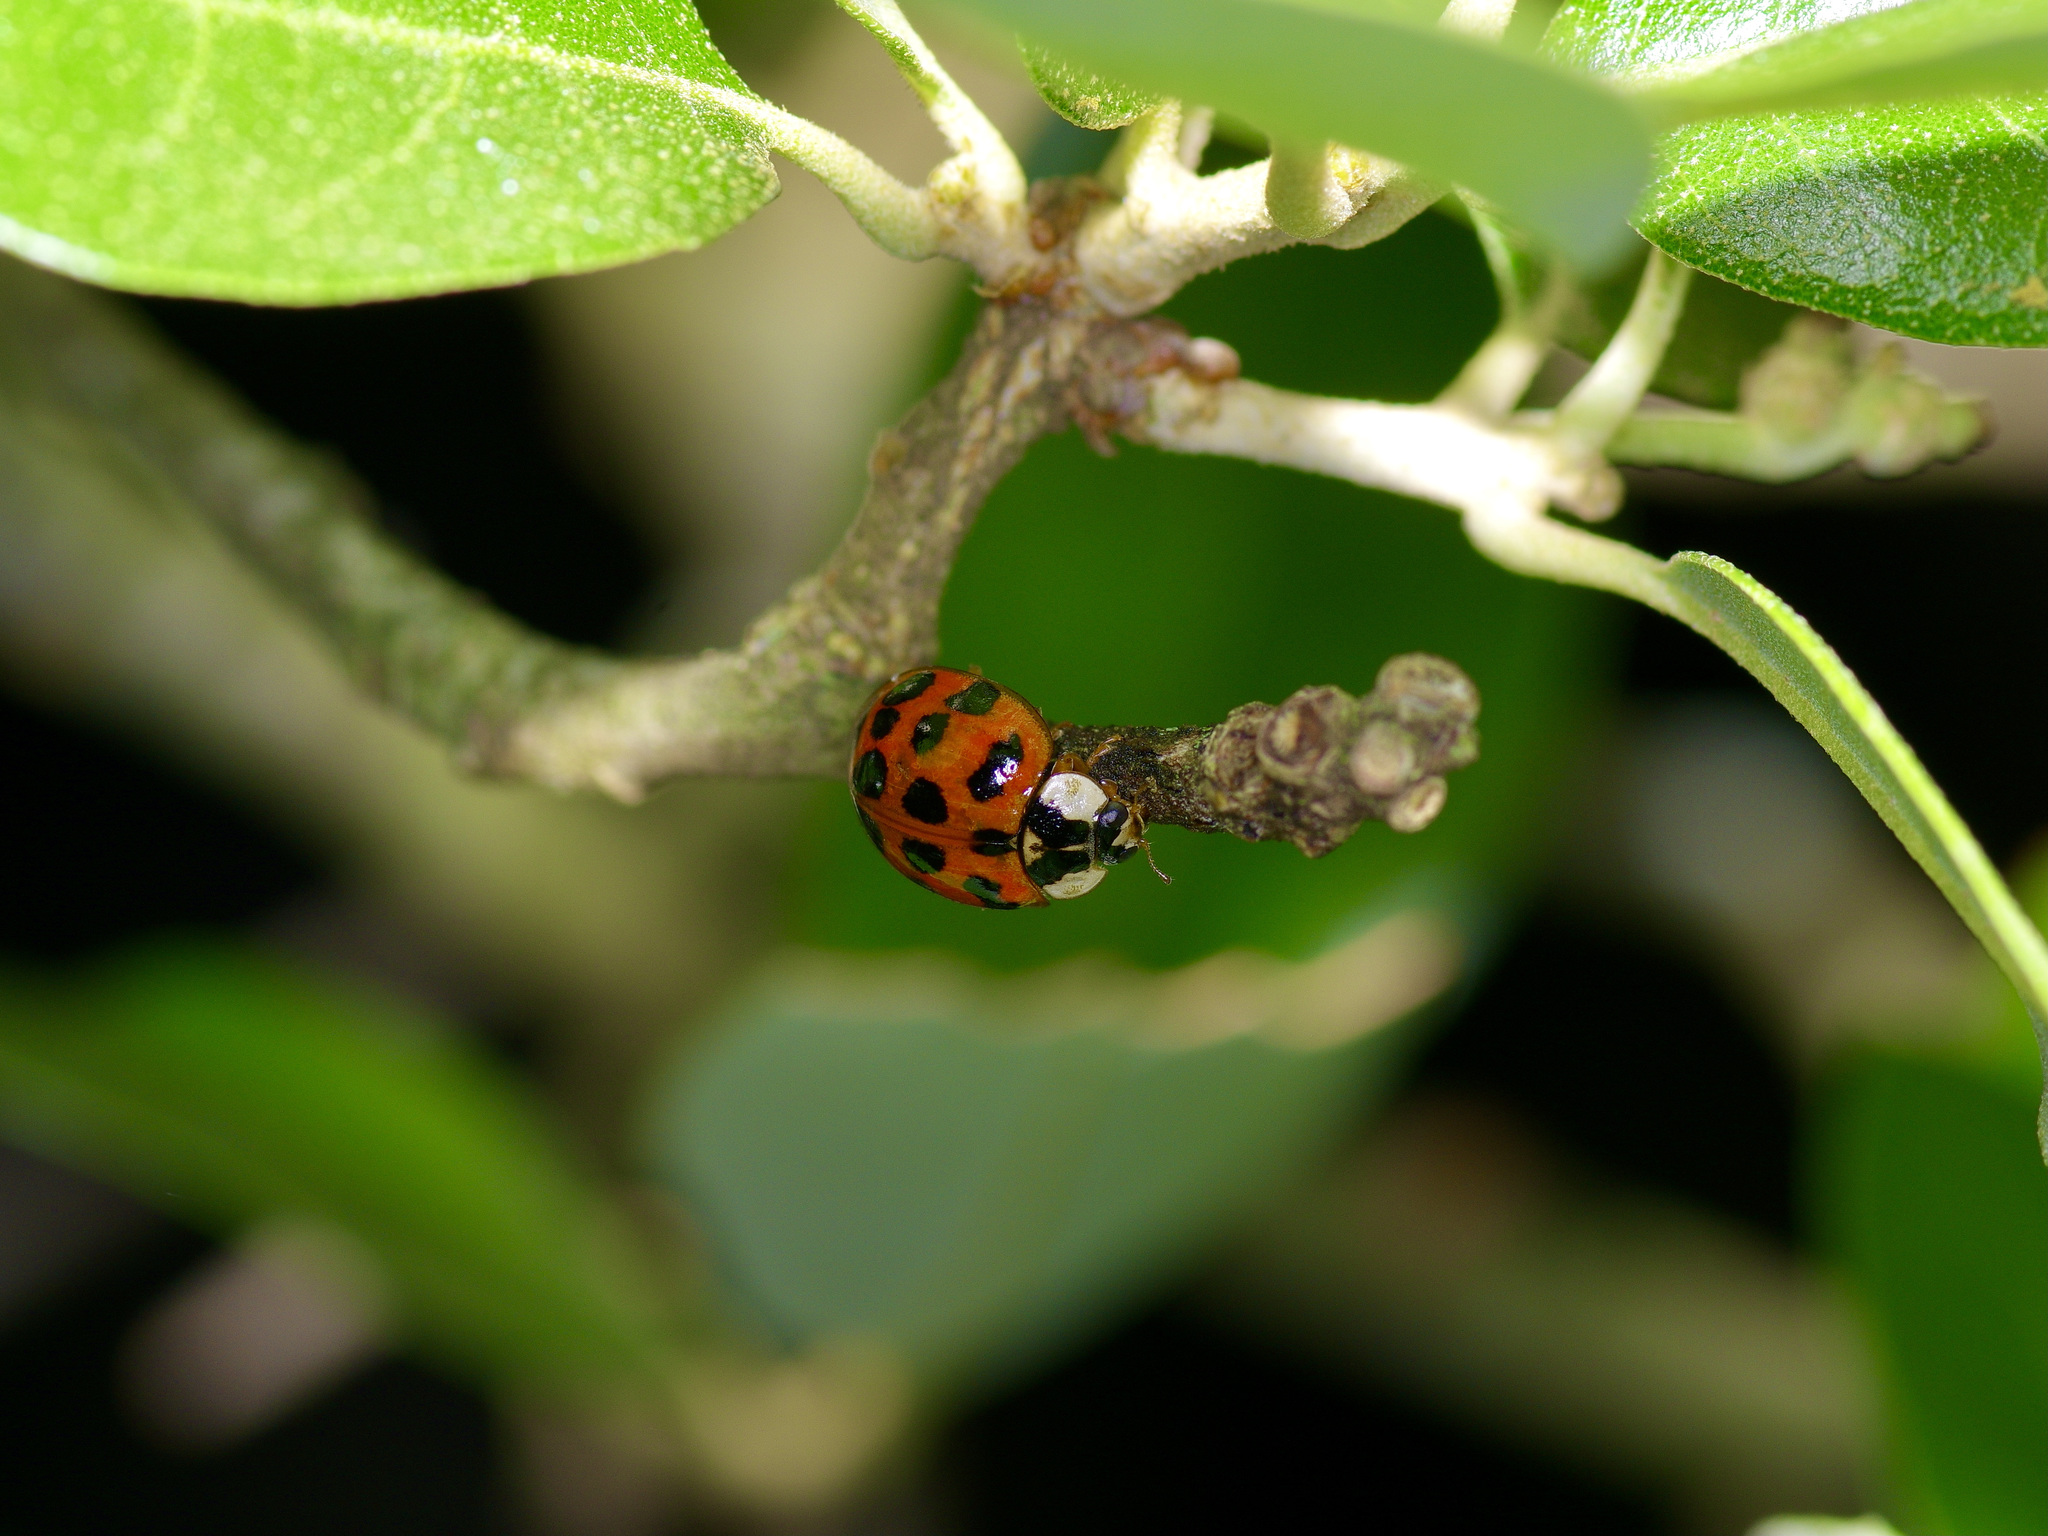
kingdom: Animalia
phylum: Arthropoda
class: Insecta
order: Coleoptera
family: Coccinellidae
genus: Harmonia
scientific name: Harmonia axyridis
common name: Harlequin ladybird
